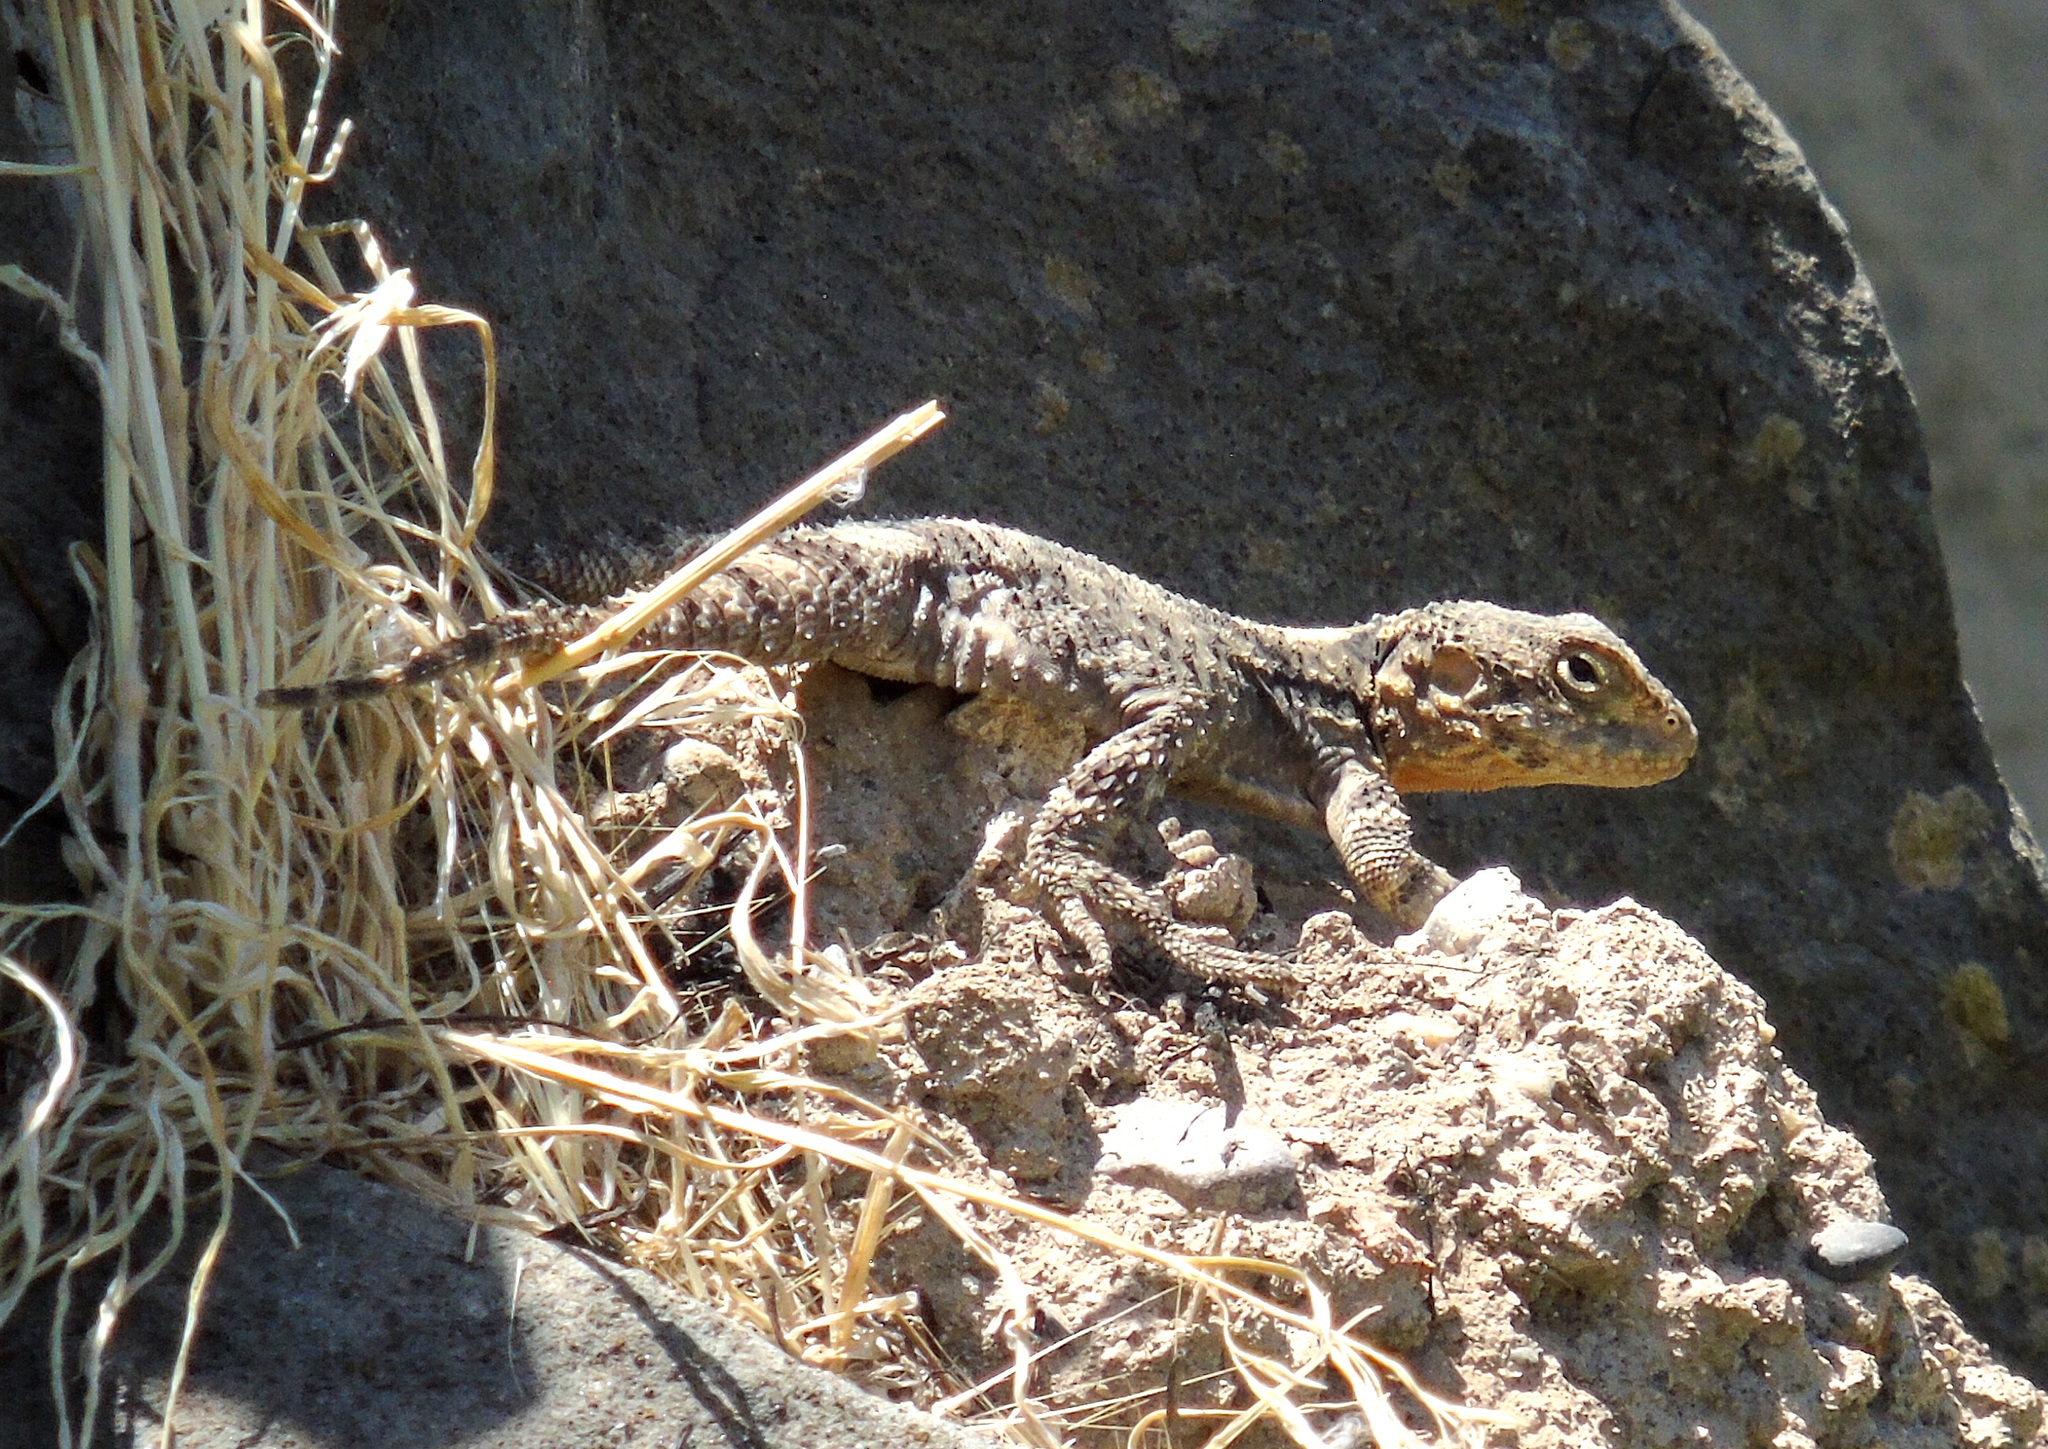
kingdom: Animalia
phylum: Chordata
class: Squamata
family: Agamidae
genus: Stellagama
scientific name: Stellagama stellio
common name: Starred agama
